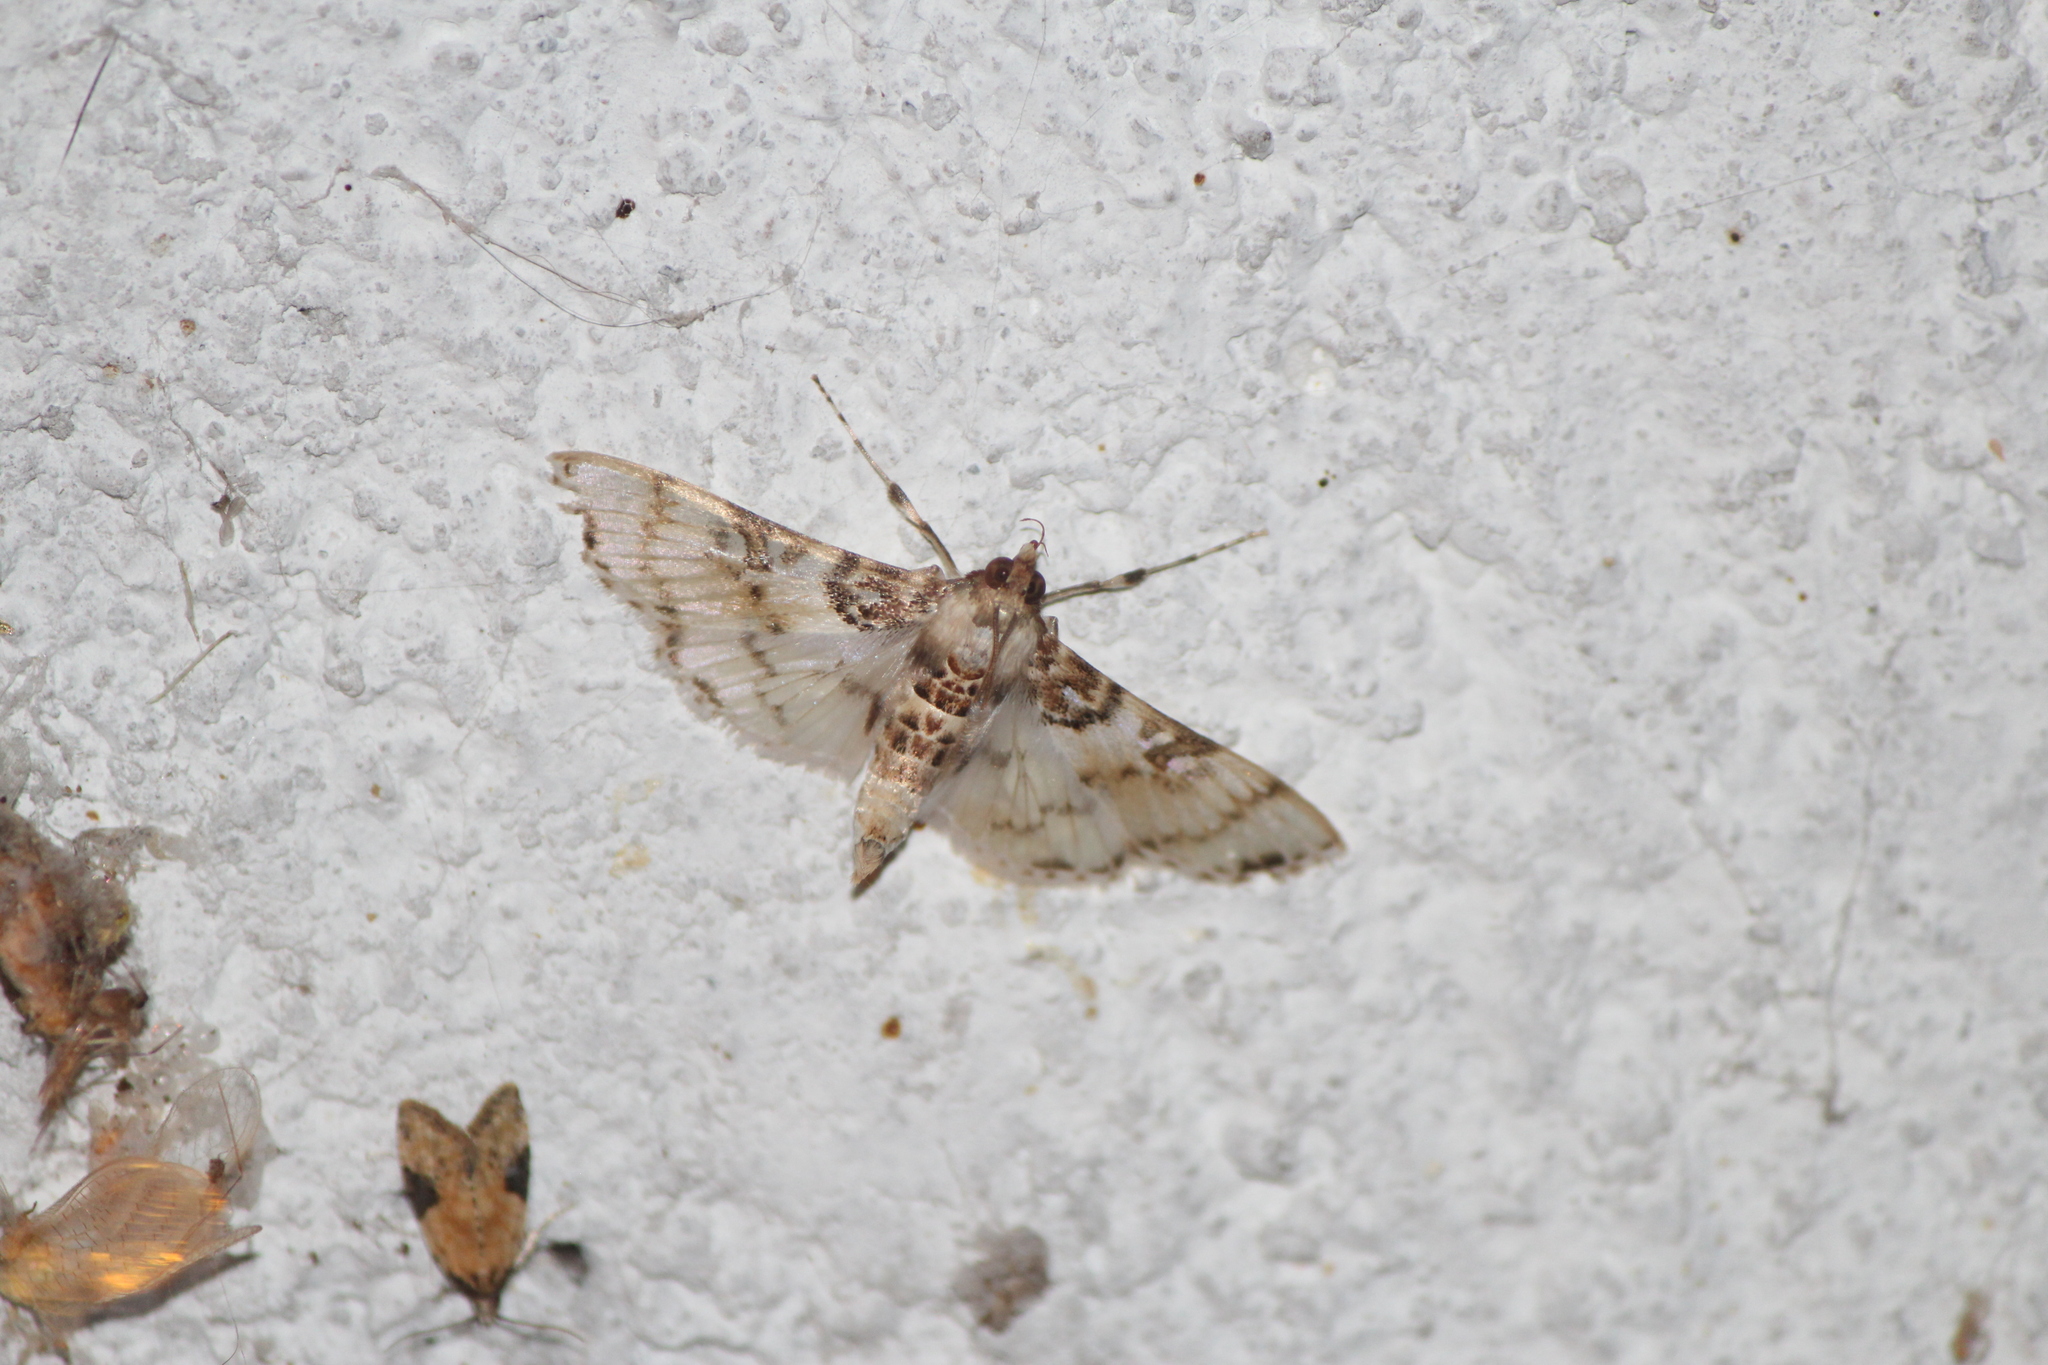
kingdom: Animalia
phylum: Arthropoda
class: Insecta
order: Lepidoptera
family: Crambidae
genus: Azochis
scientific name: Azochis rufidiscalis
